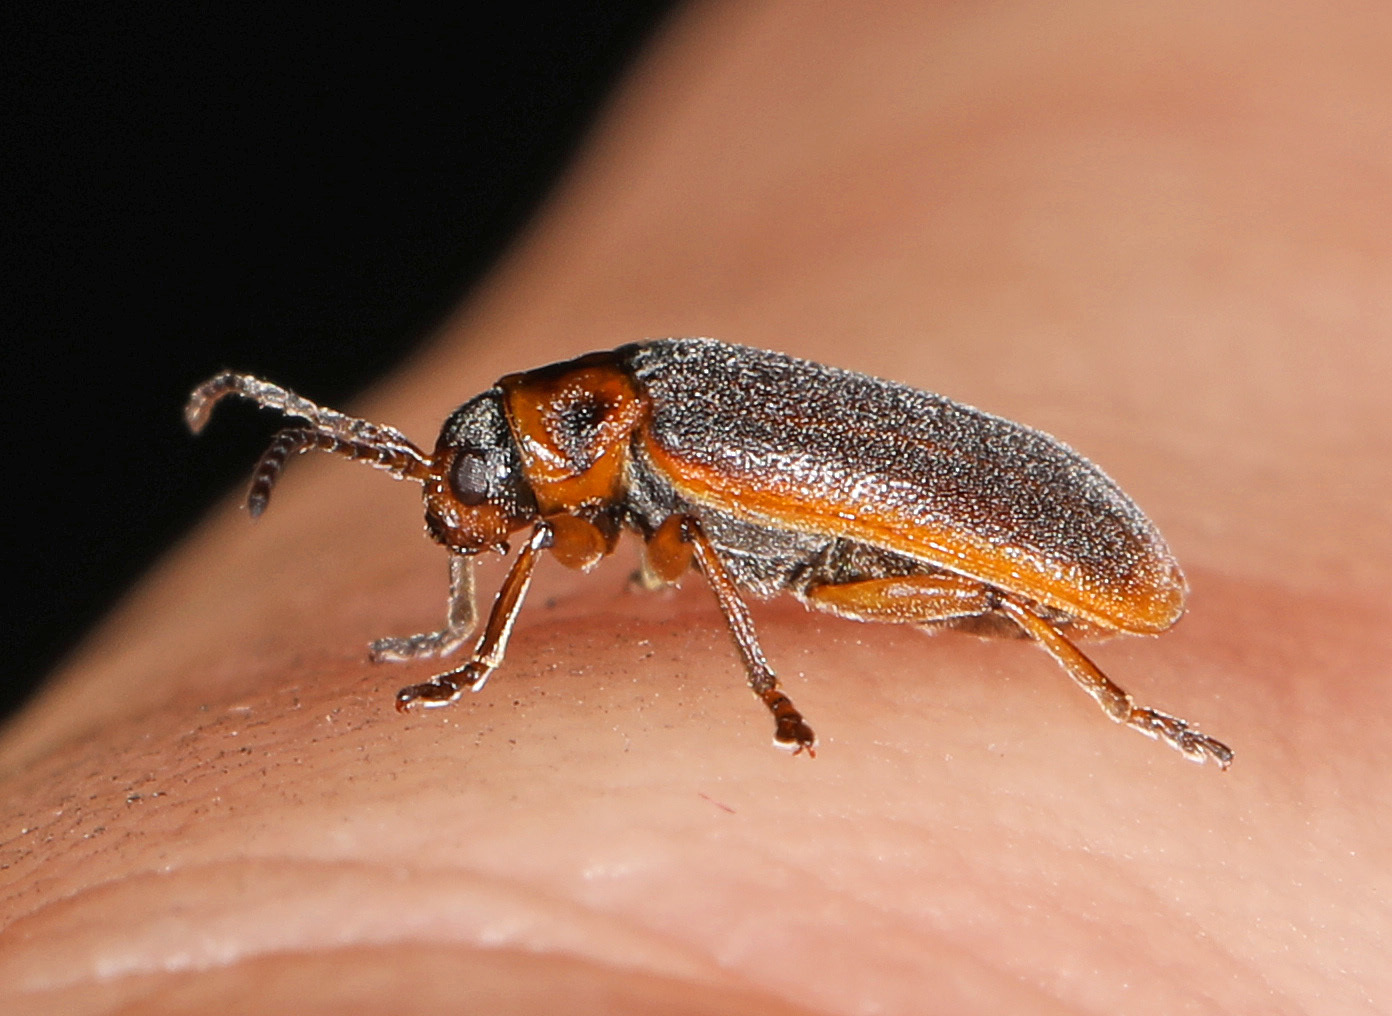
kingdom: Animalia
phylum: Arthropoda
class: Insecta
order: Coleoptera
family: Chrysomelidae
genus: Galerucella
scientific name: Galerucella nymphaeae
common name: Leaf beetle
